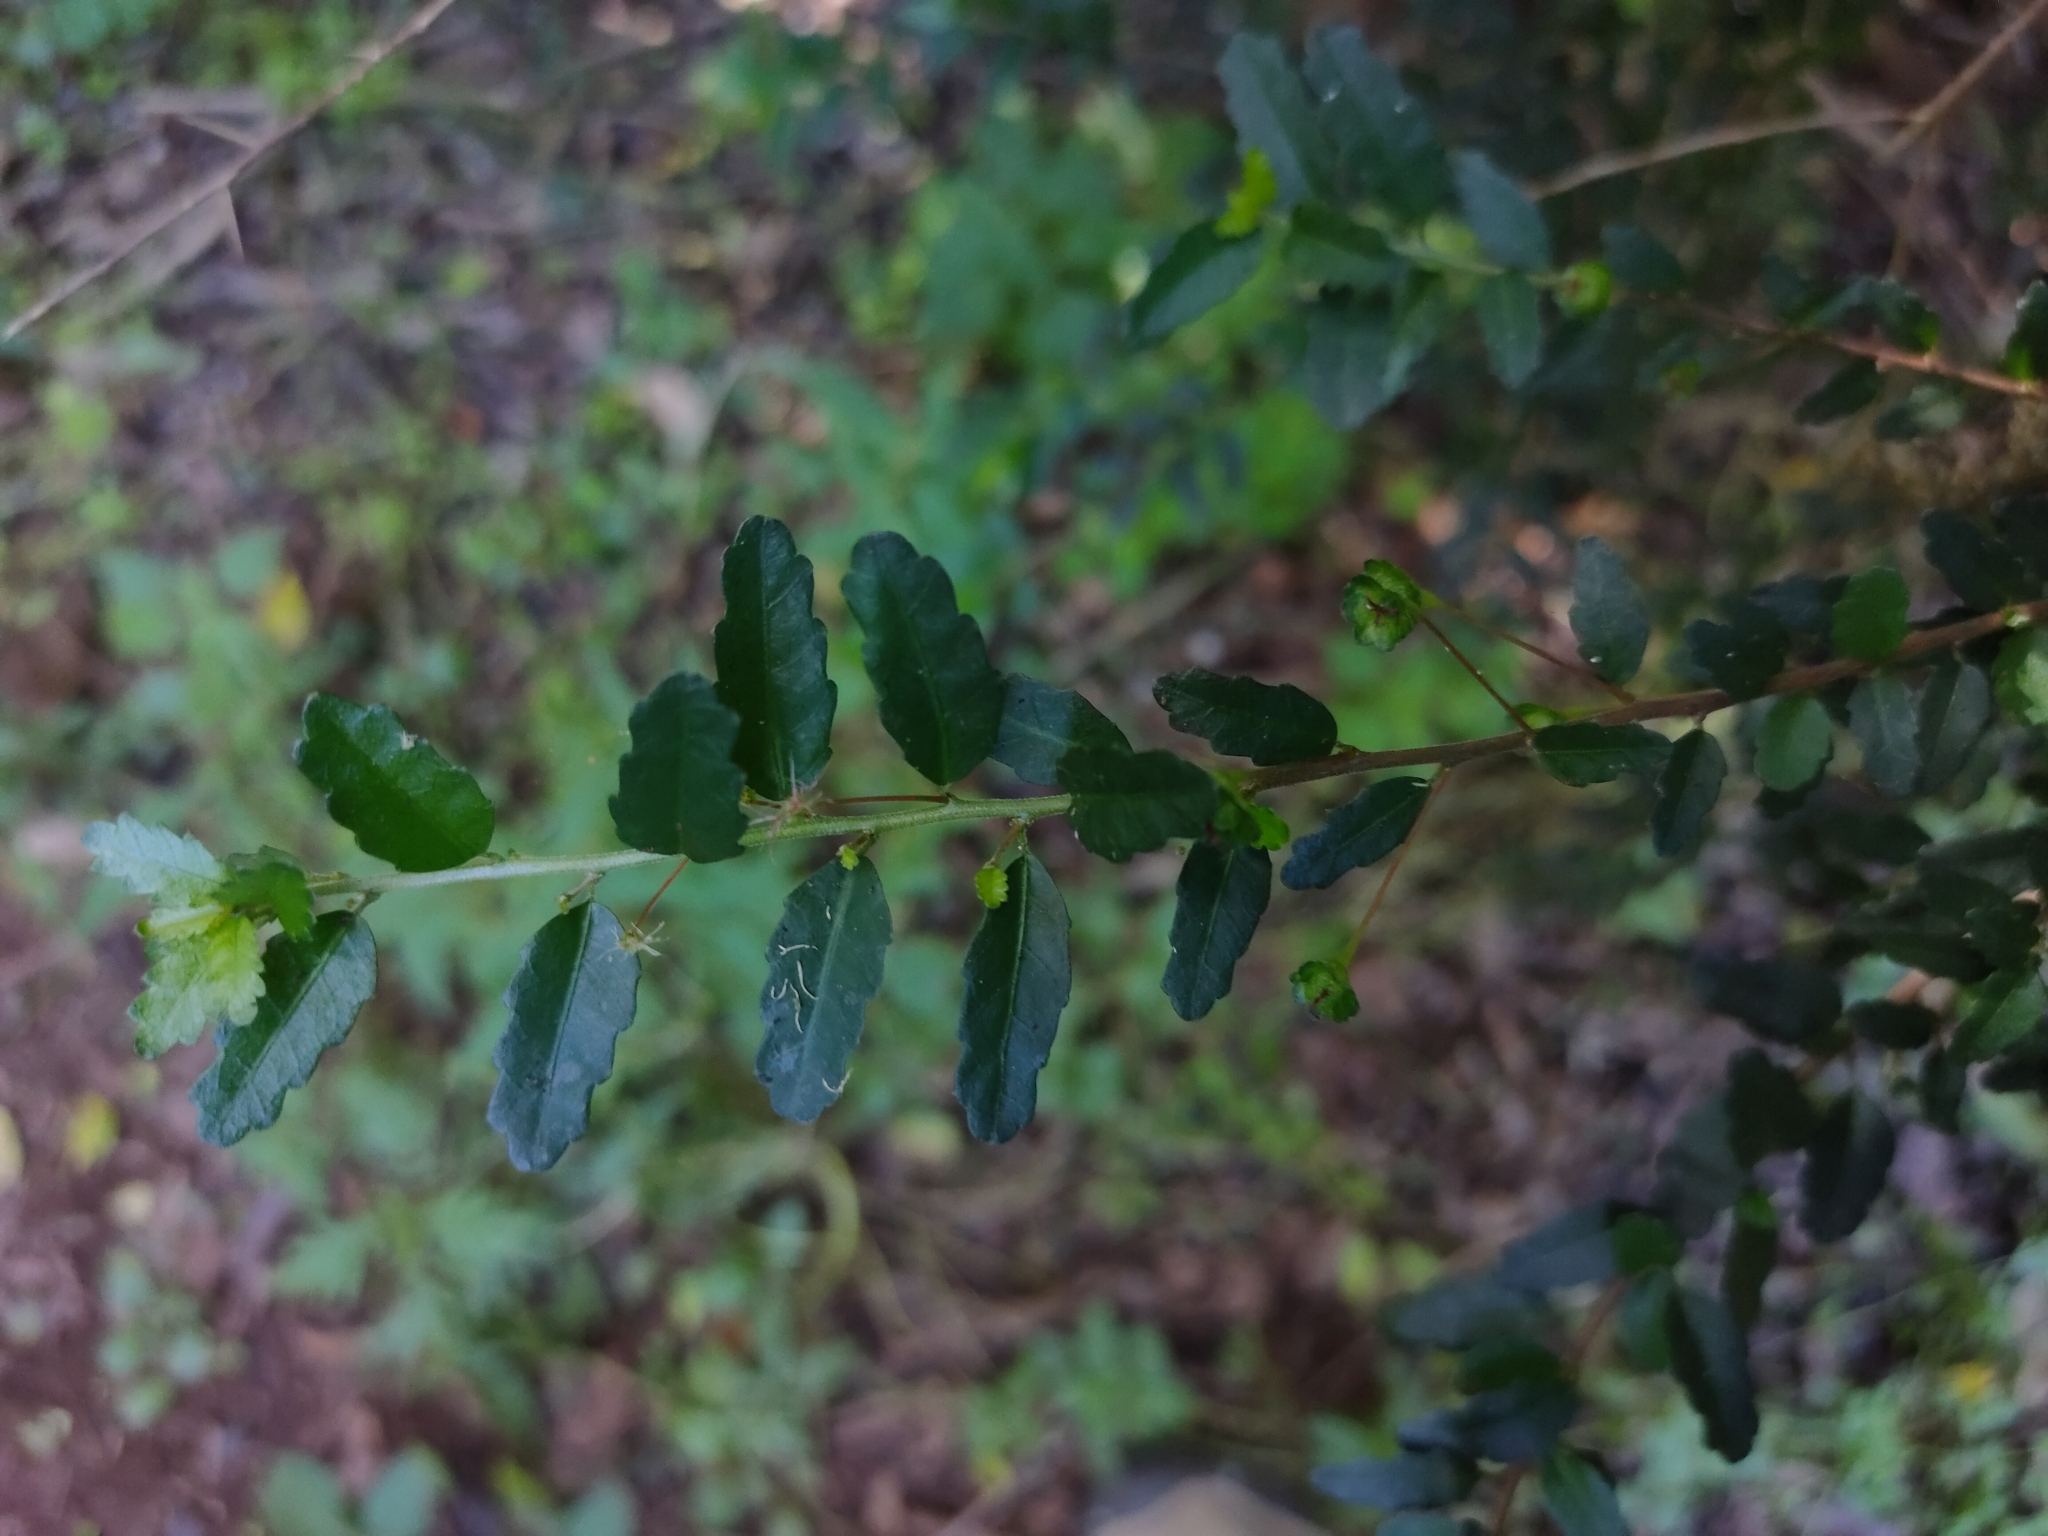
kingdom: Plantae
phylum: Tracheophyta
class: Magnoliopsida
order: Malpighiales
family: Euphorbiaceae
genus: Acalypha
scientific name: Acalypha capillipes
